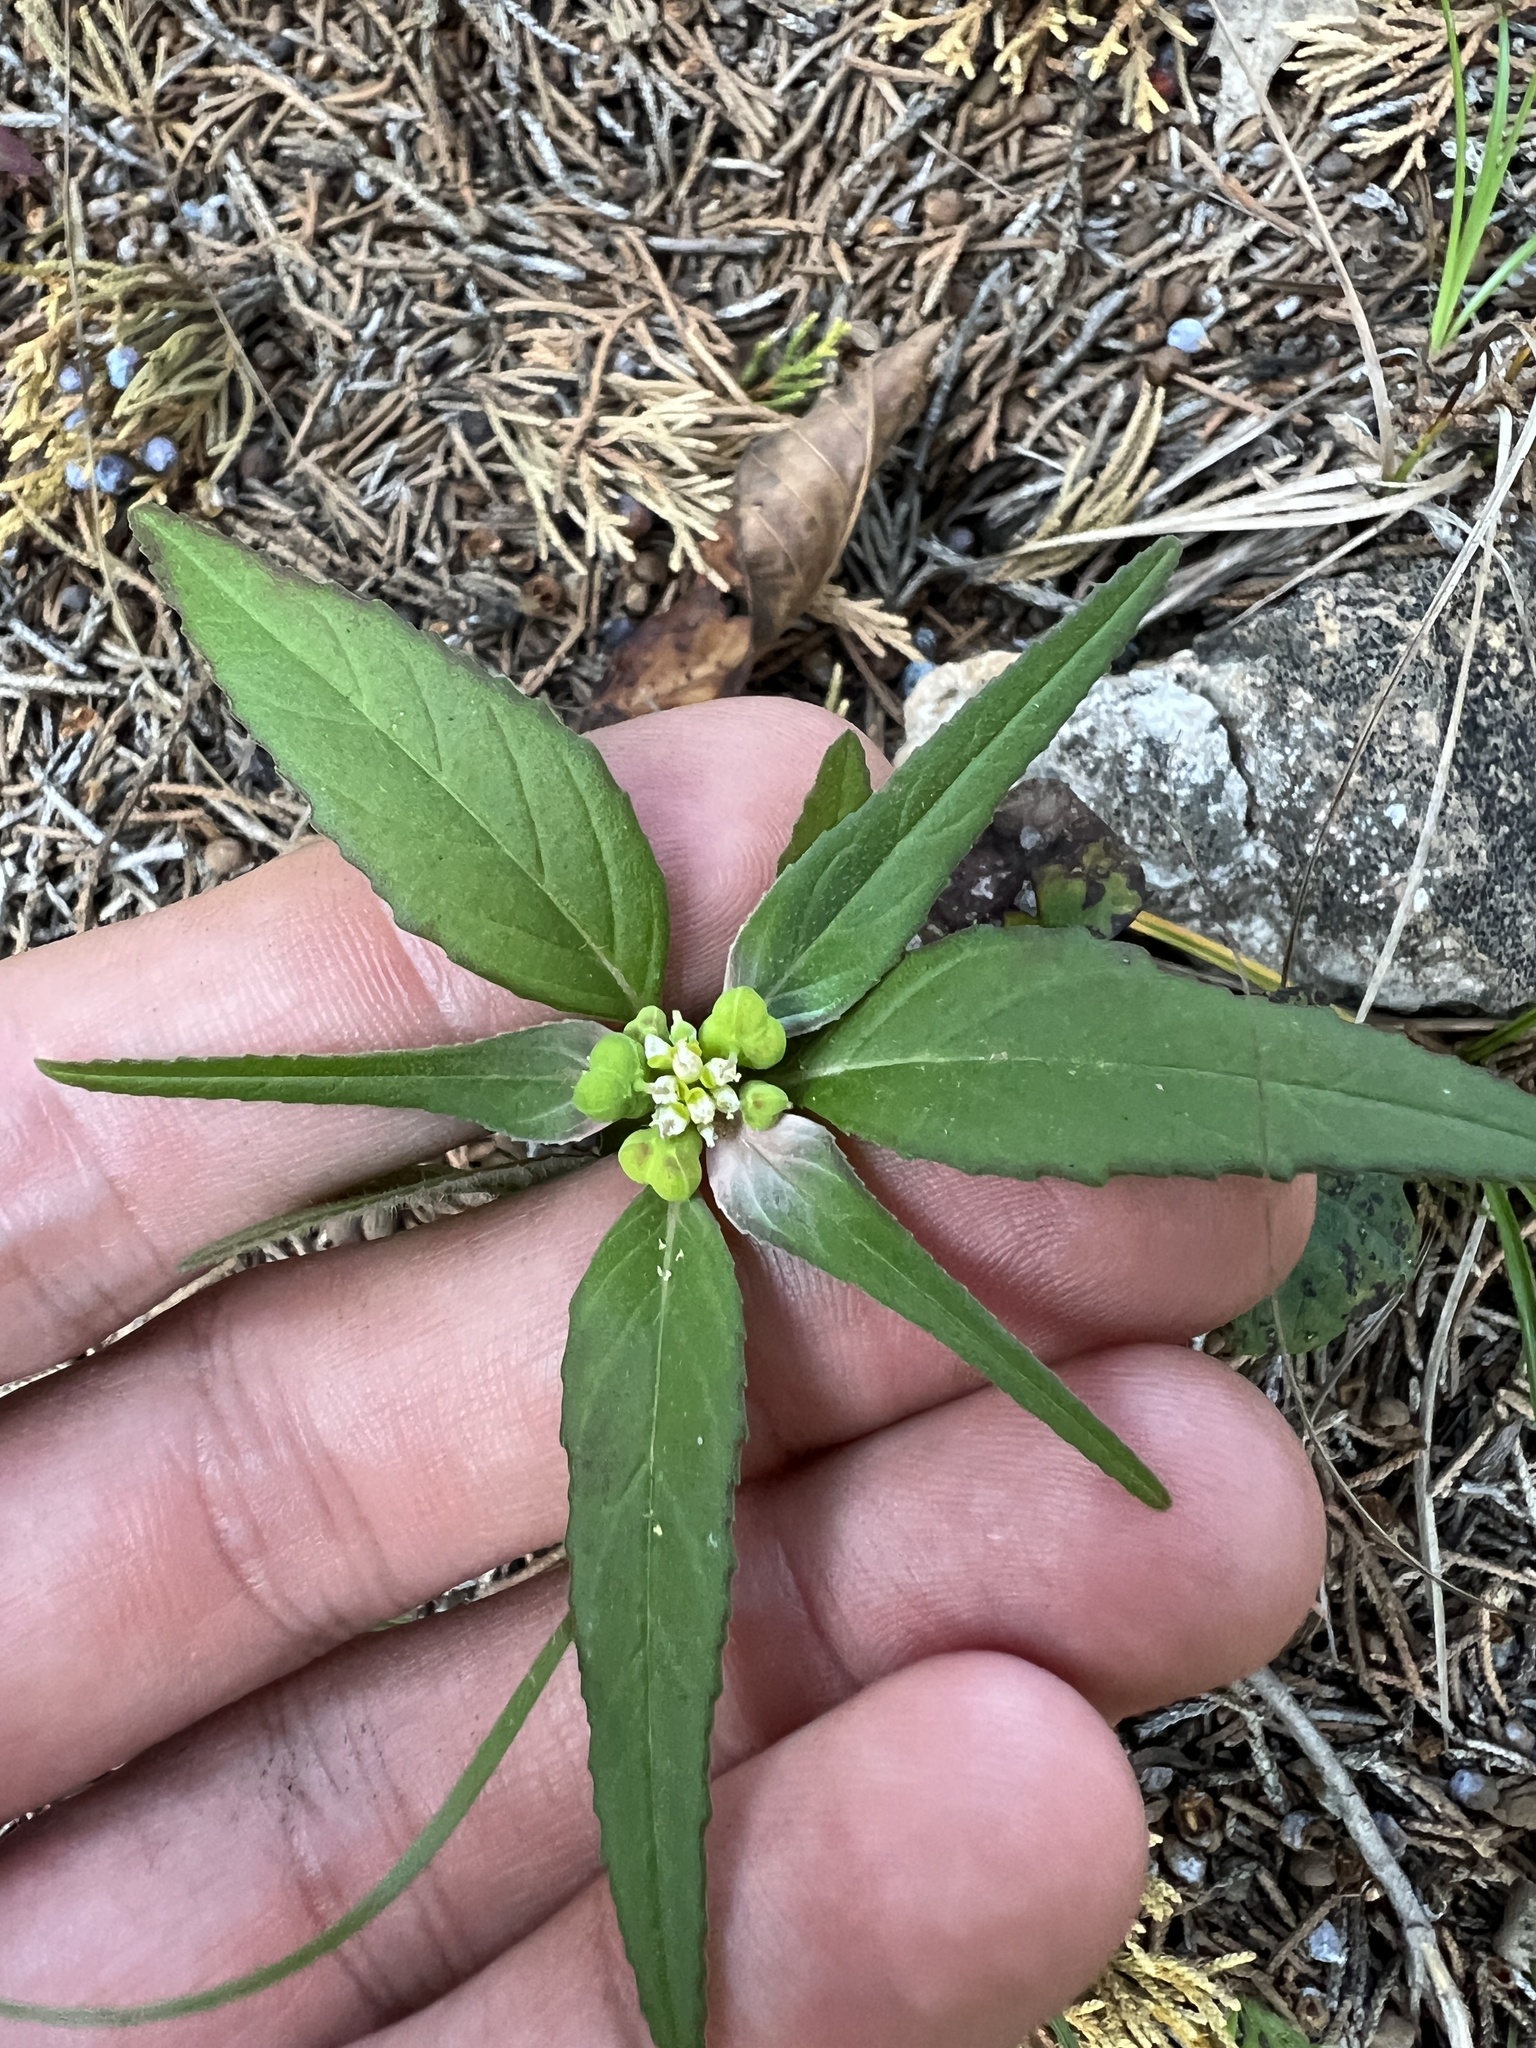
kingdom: Plantae
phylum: Tracheophyta
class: Magnoliopsida
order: Malpighiales
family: Euphorbiaceae
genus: Euphorbia
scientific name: Euphorbia dentata
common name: Dentate spurge
